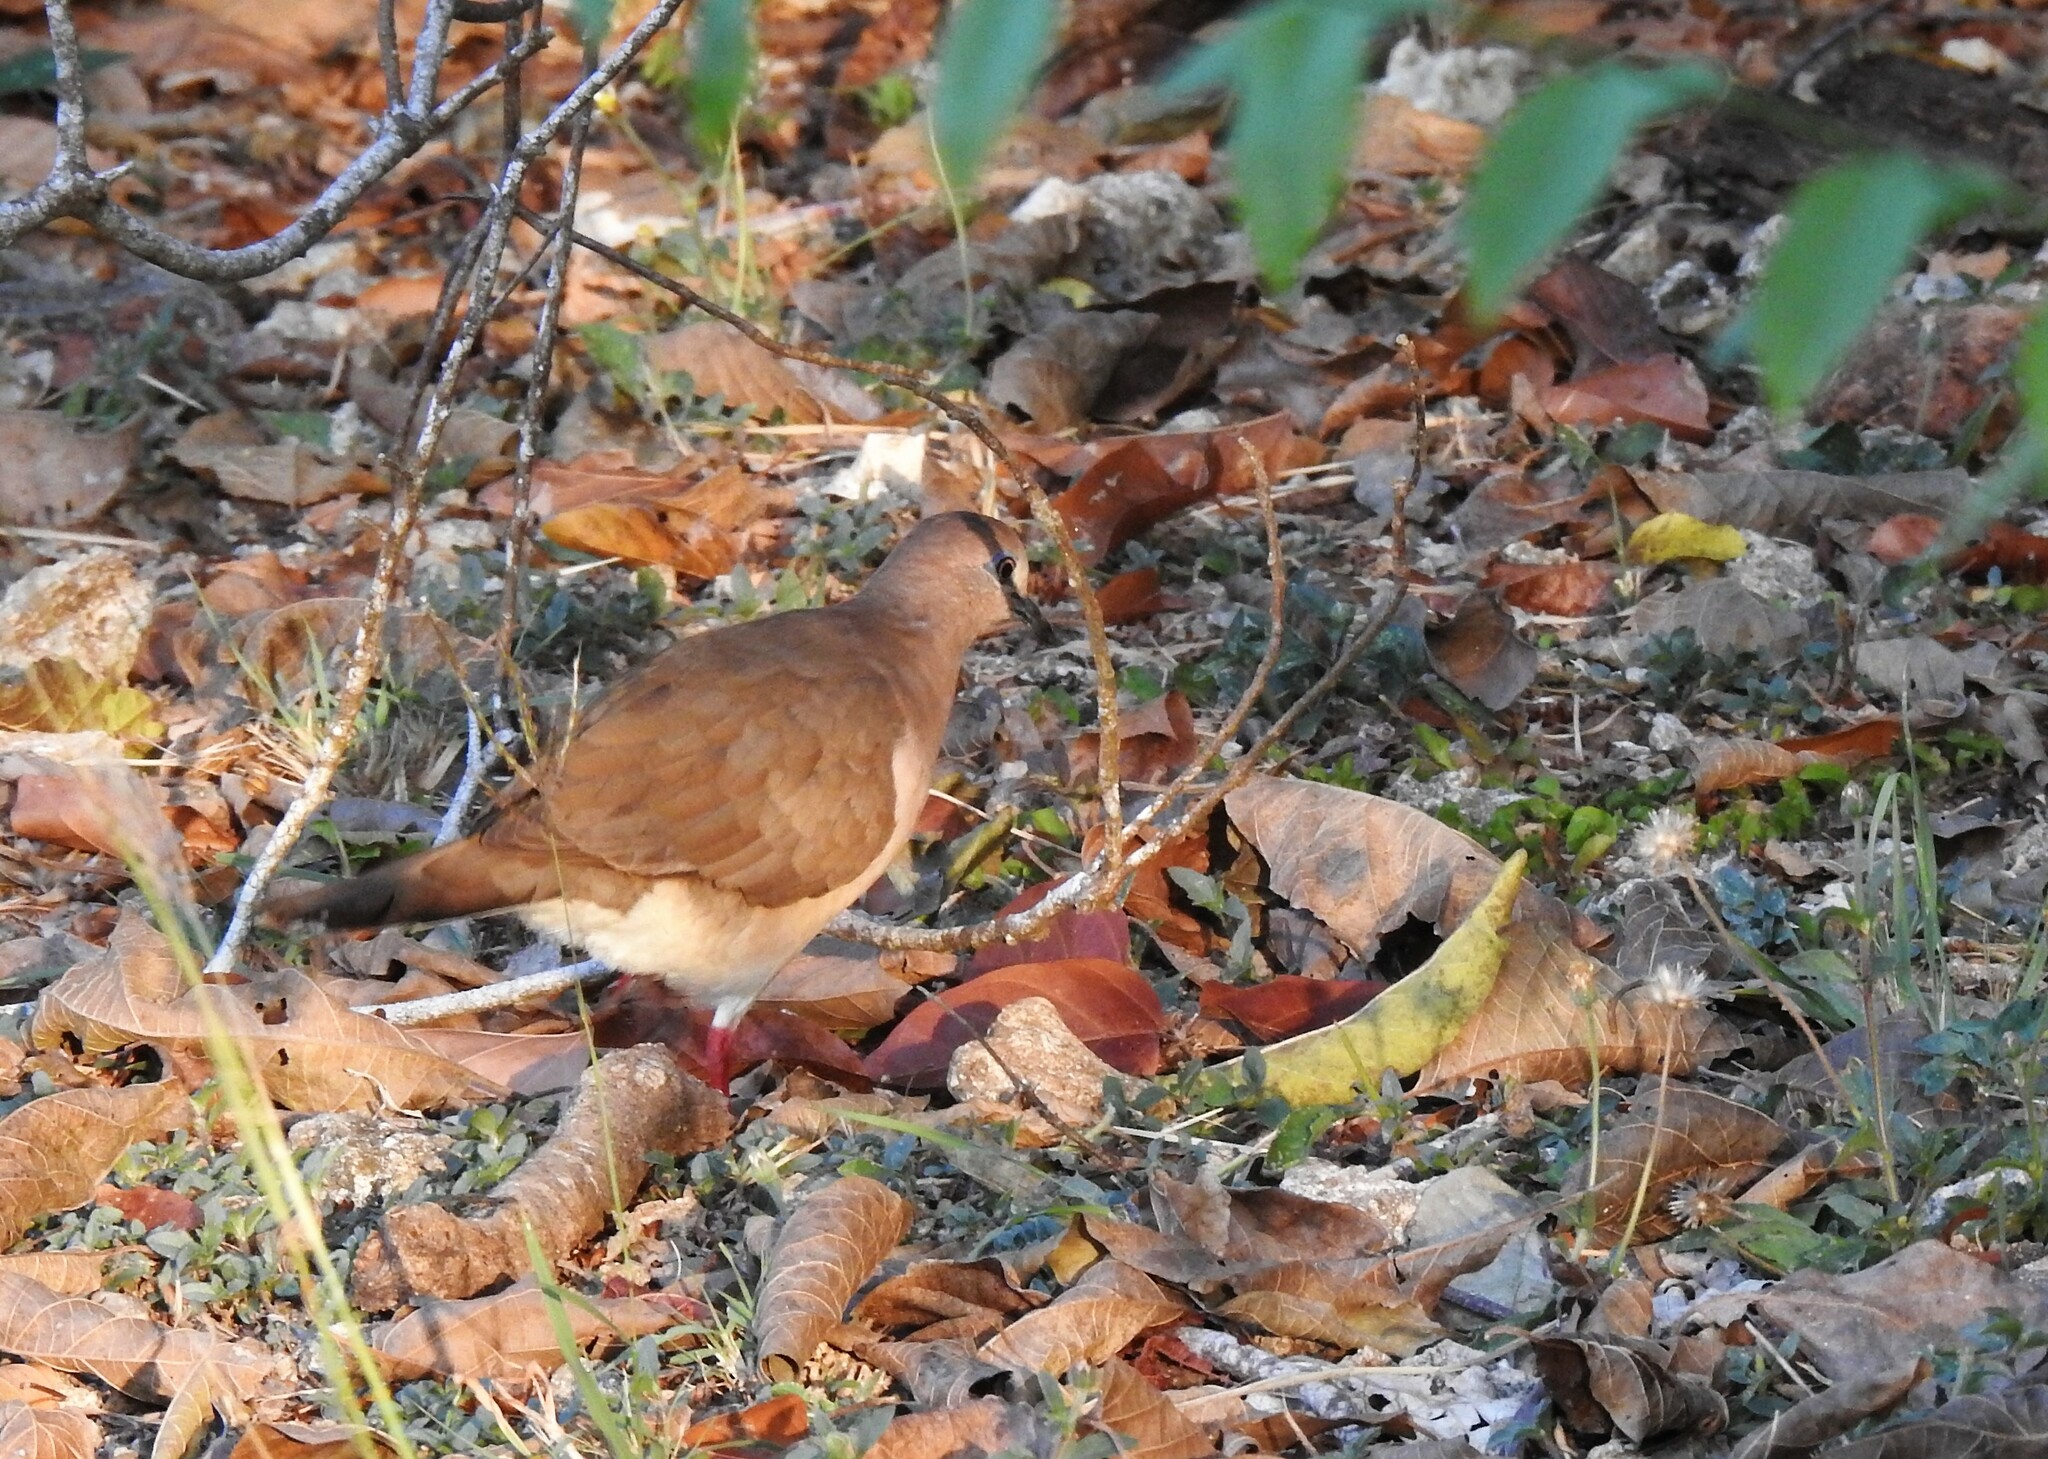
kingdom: Animalia
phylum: Chordata
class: Aves
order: Columbiformes
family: Columbidae
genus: Leptotila
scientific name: Leptotila verreauxi
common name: White-tipped dove
